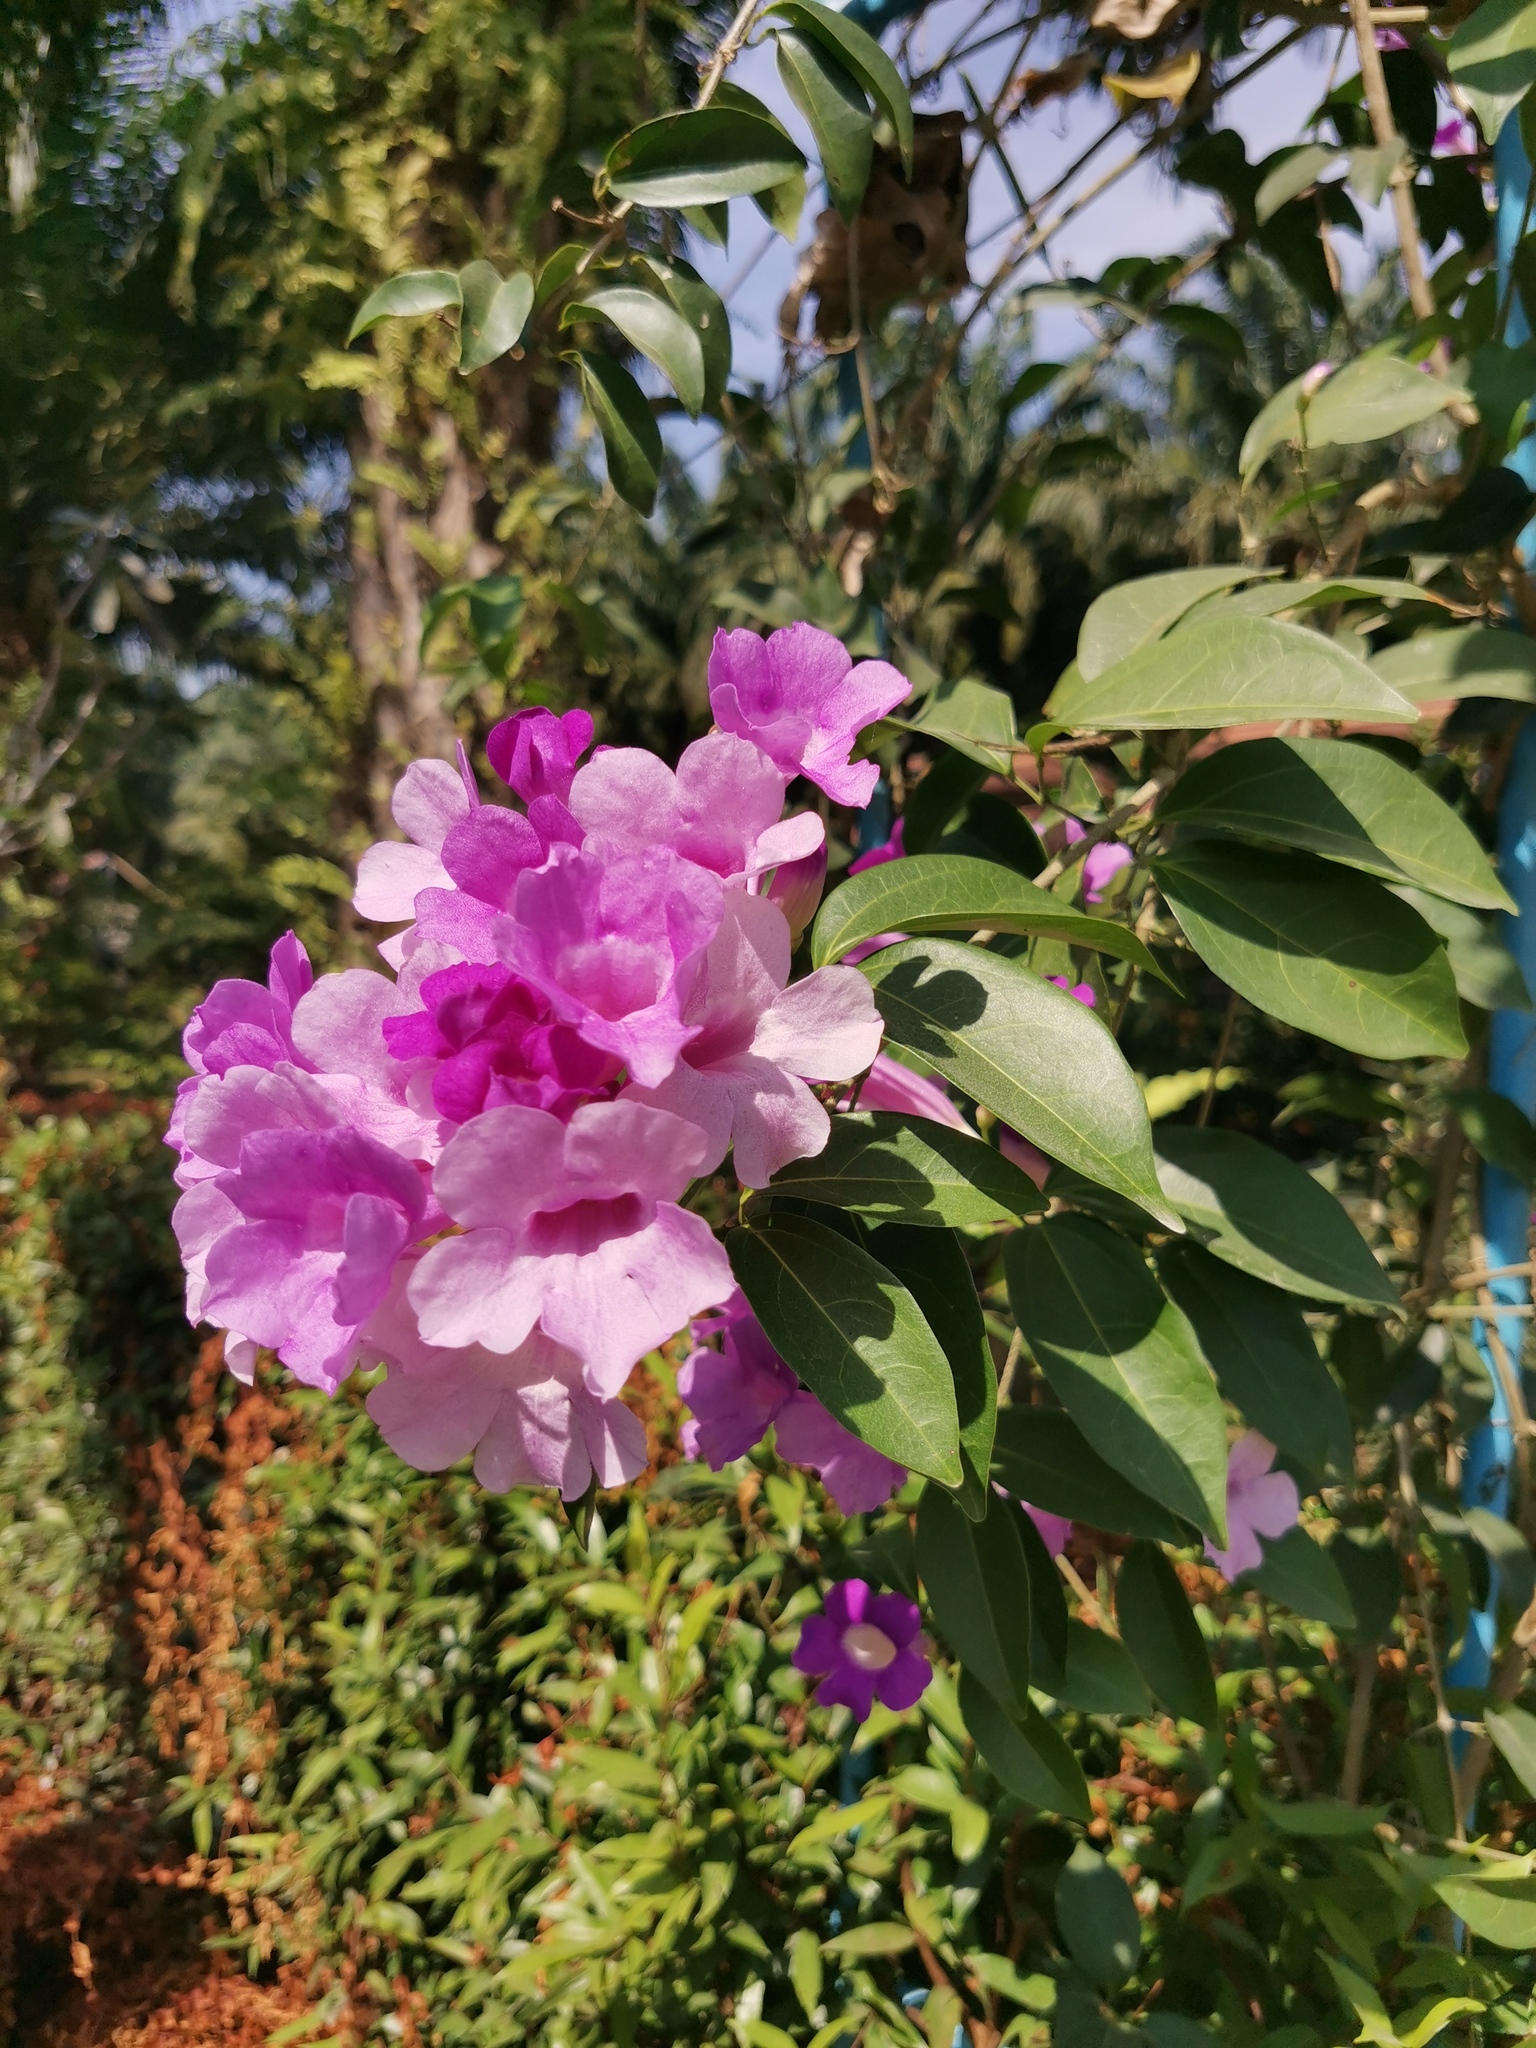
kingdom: Plantae
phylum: Tracheophyta
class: Magnoliopsida
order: Lamiales
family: Bignoniaceae
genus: Mansoa
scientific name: Mansoa alliacea
